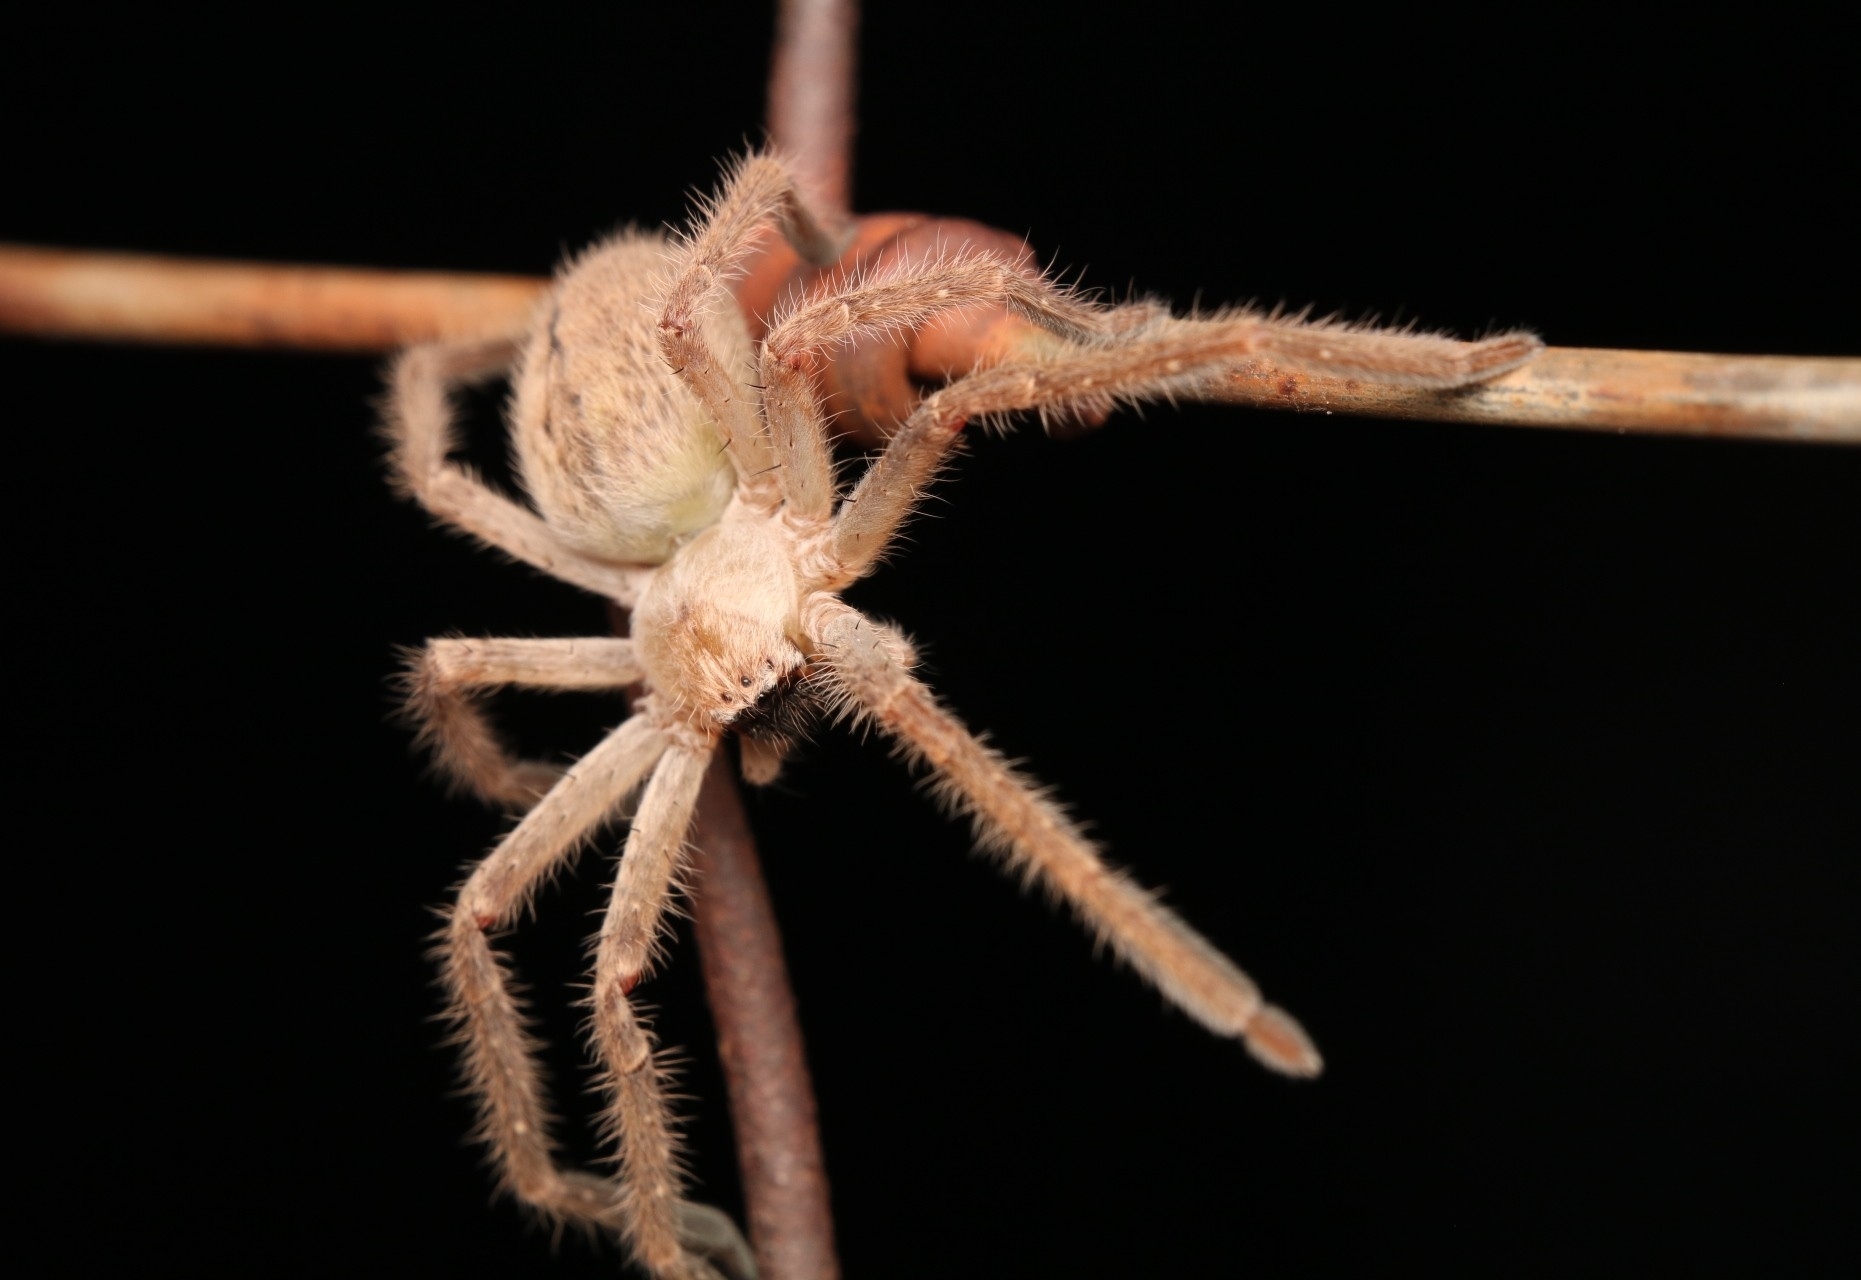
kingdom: Animalia
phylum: Arthropoda
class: Arachnida
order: Araneae
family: Sparassidae
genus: Olios
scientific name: Olios giganteus
